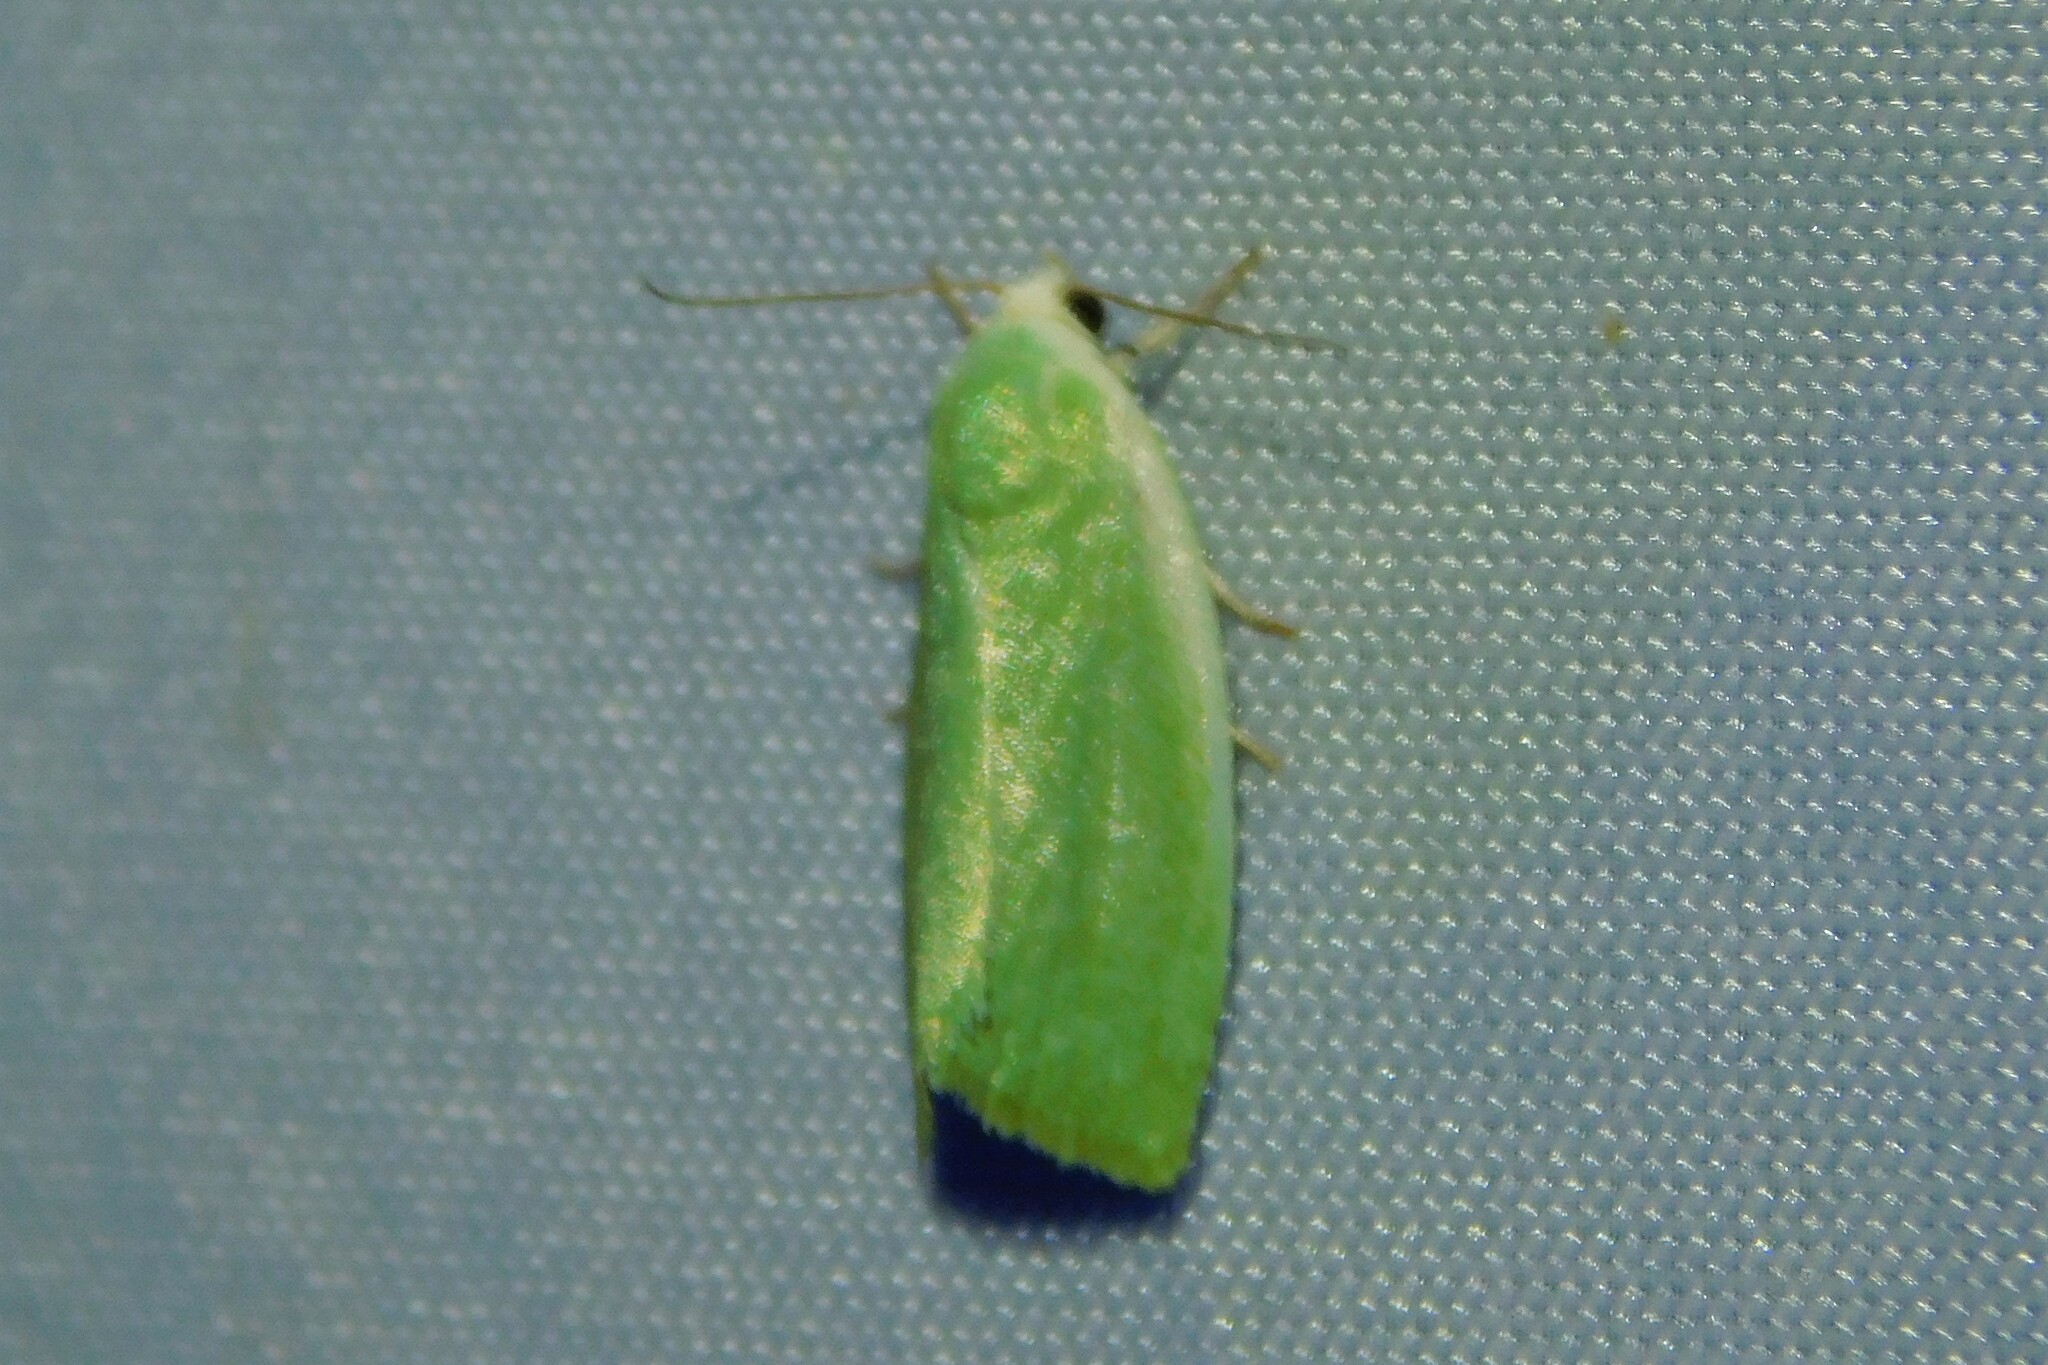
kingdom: Animalia
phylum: Arthropoda
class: Insecta
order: Lepidoptera
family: Nolidae
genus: Earias
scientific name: Earias clorana
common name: Cream-bordered green pea
